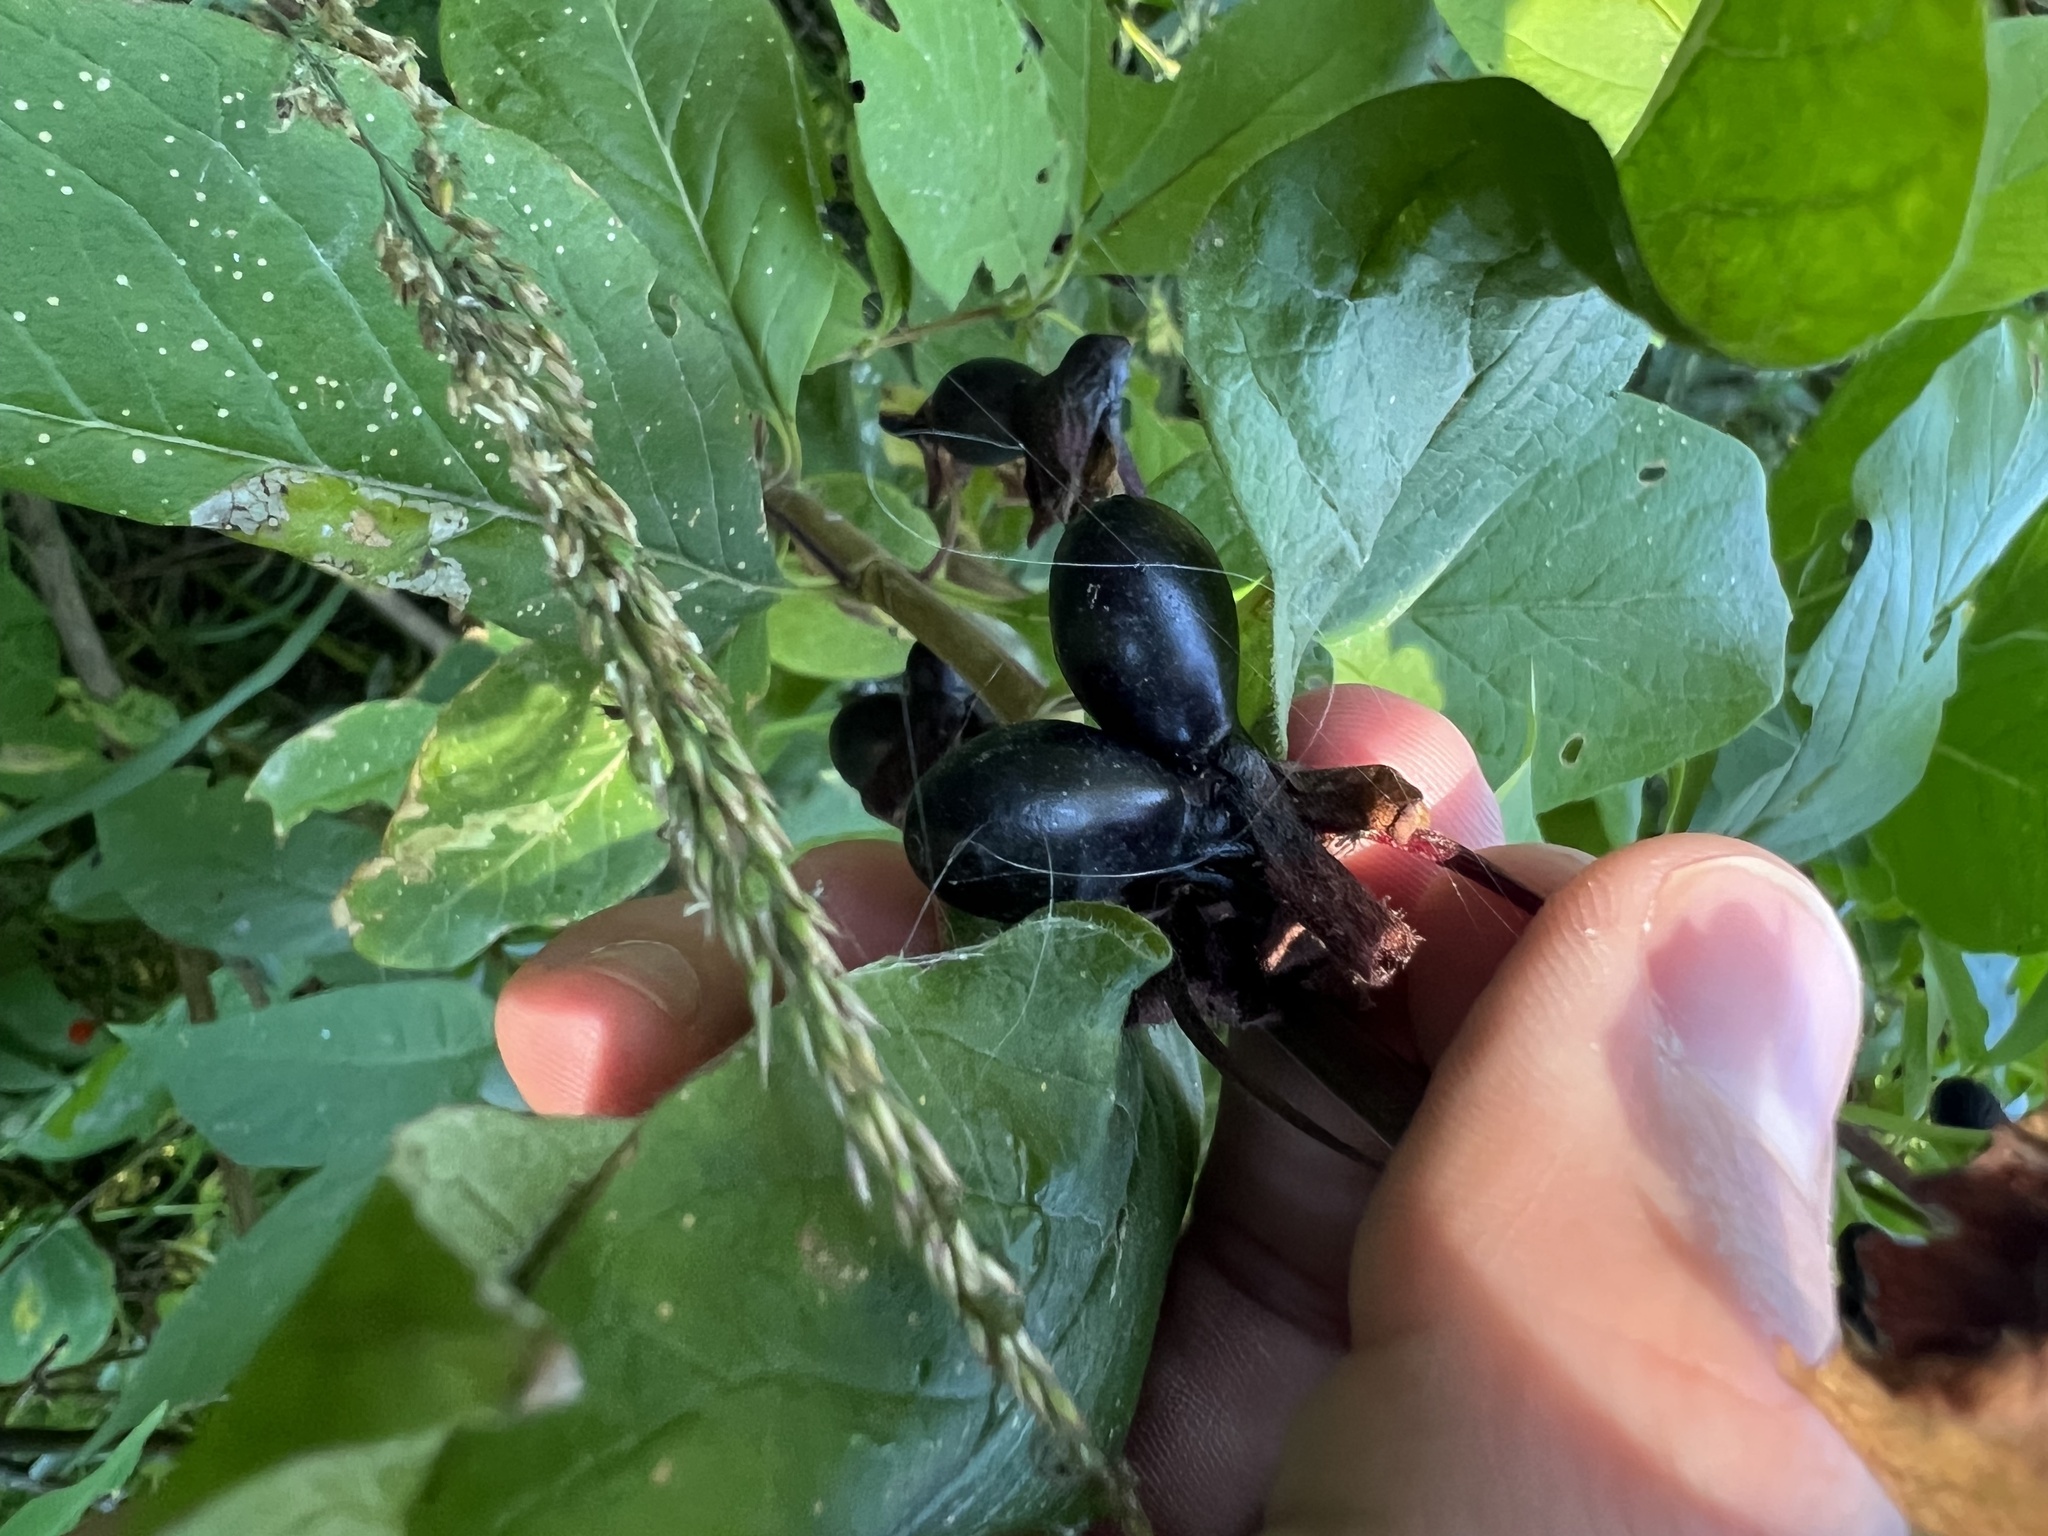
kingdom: Plantae
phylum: Tracheophyta
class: Magnoliopsida
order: Dipsacales
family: Caprifoliaceae
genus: Lonicera
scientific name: Lonicera involucrata
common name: Californian honeysuckle
